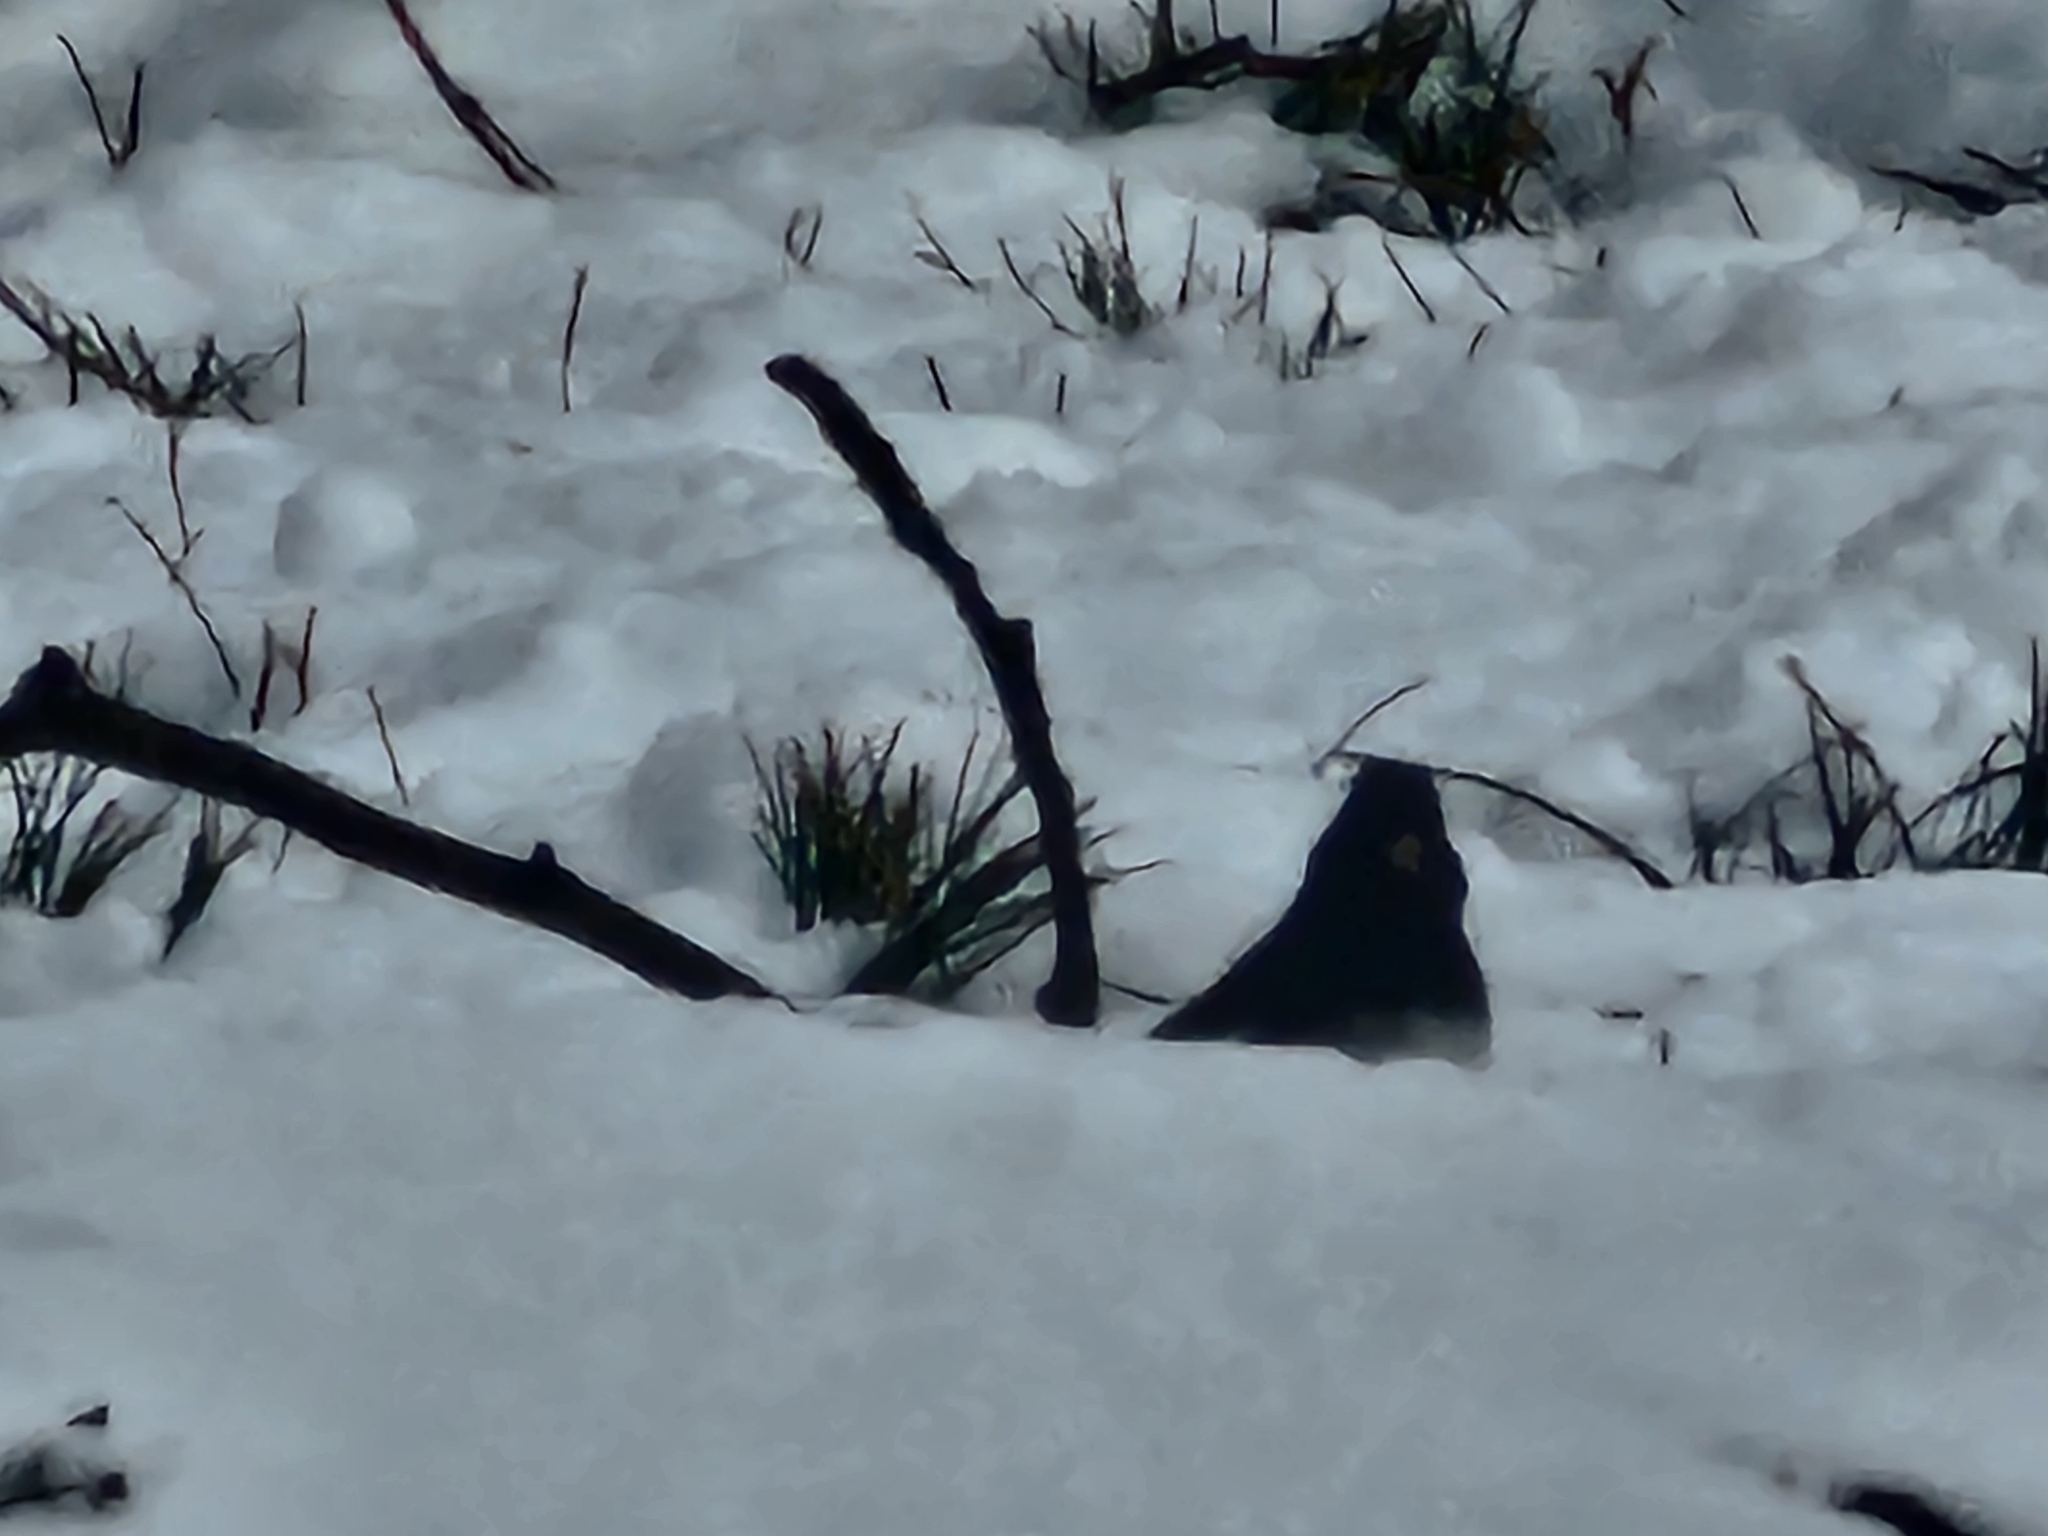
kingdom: Animalia
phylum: Chordata
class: Aves
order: Passeriformes
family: Passerellidae
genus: Junco
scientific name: Junco hyemalis
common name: Dark-eyed junco
